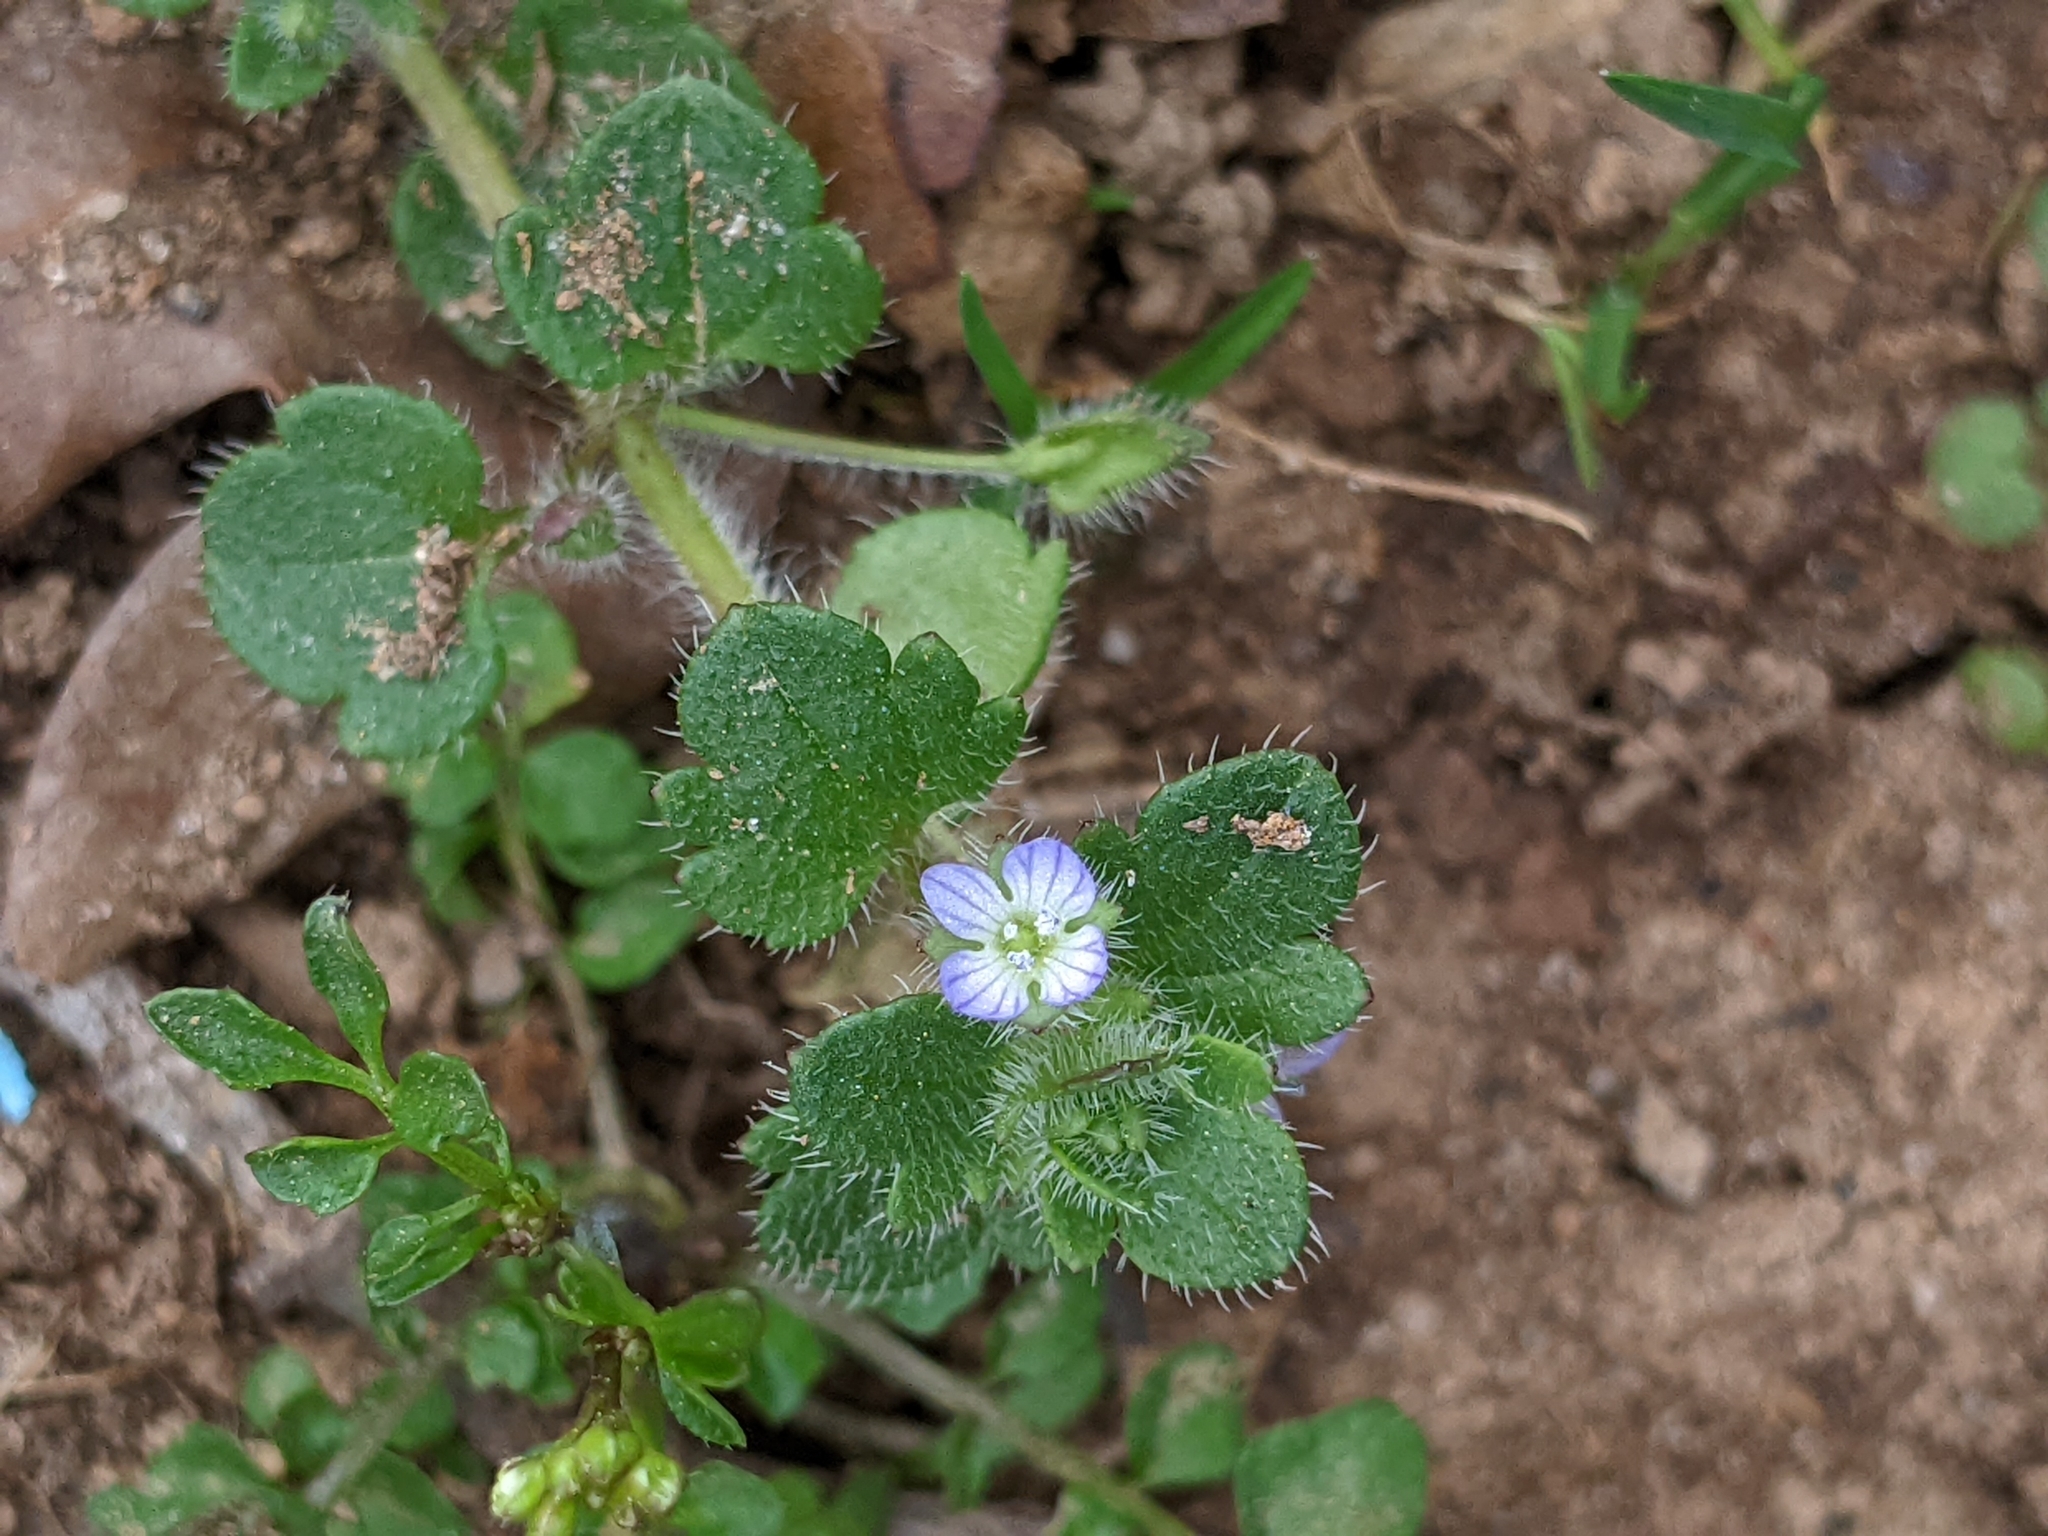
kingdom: Plantae
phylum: Tracheophyta
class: Magnoliopsida
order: Lamiales
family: Plantaginaceae
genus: Veronica
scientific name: Veronica hederifolia
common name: Ivy-leaved speedwell
